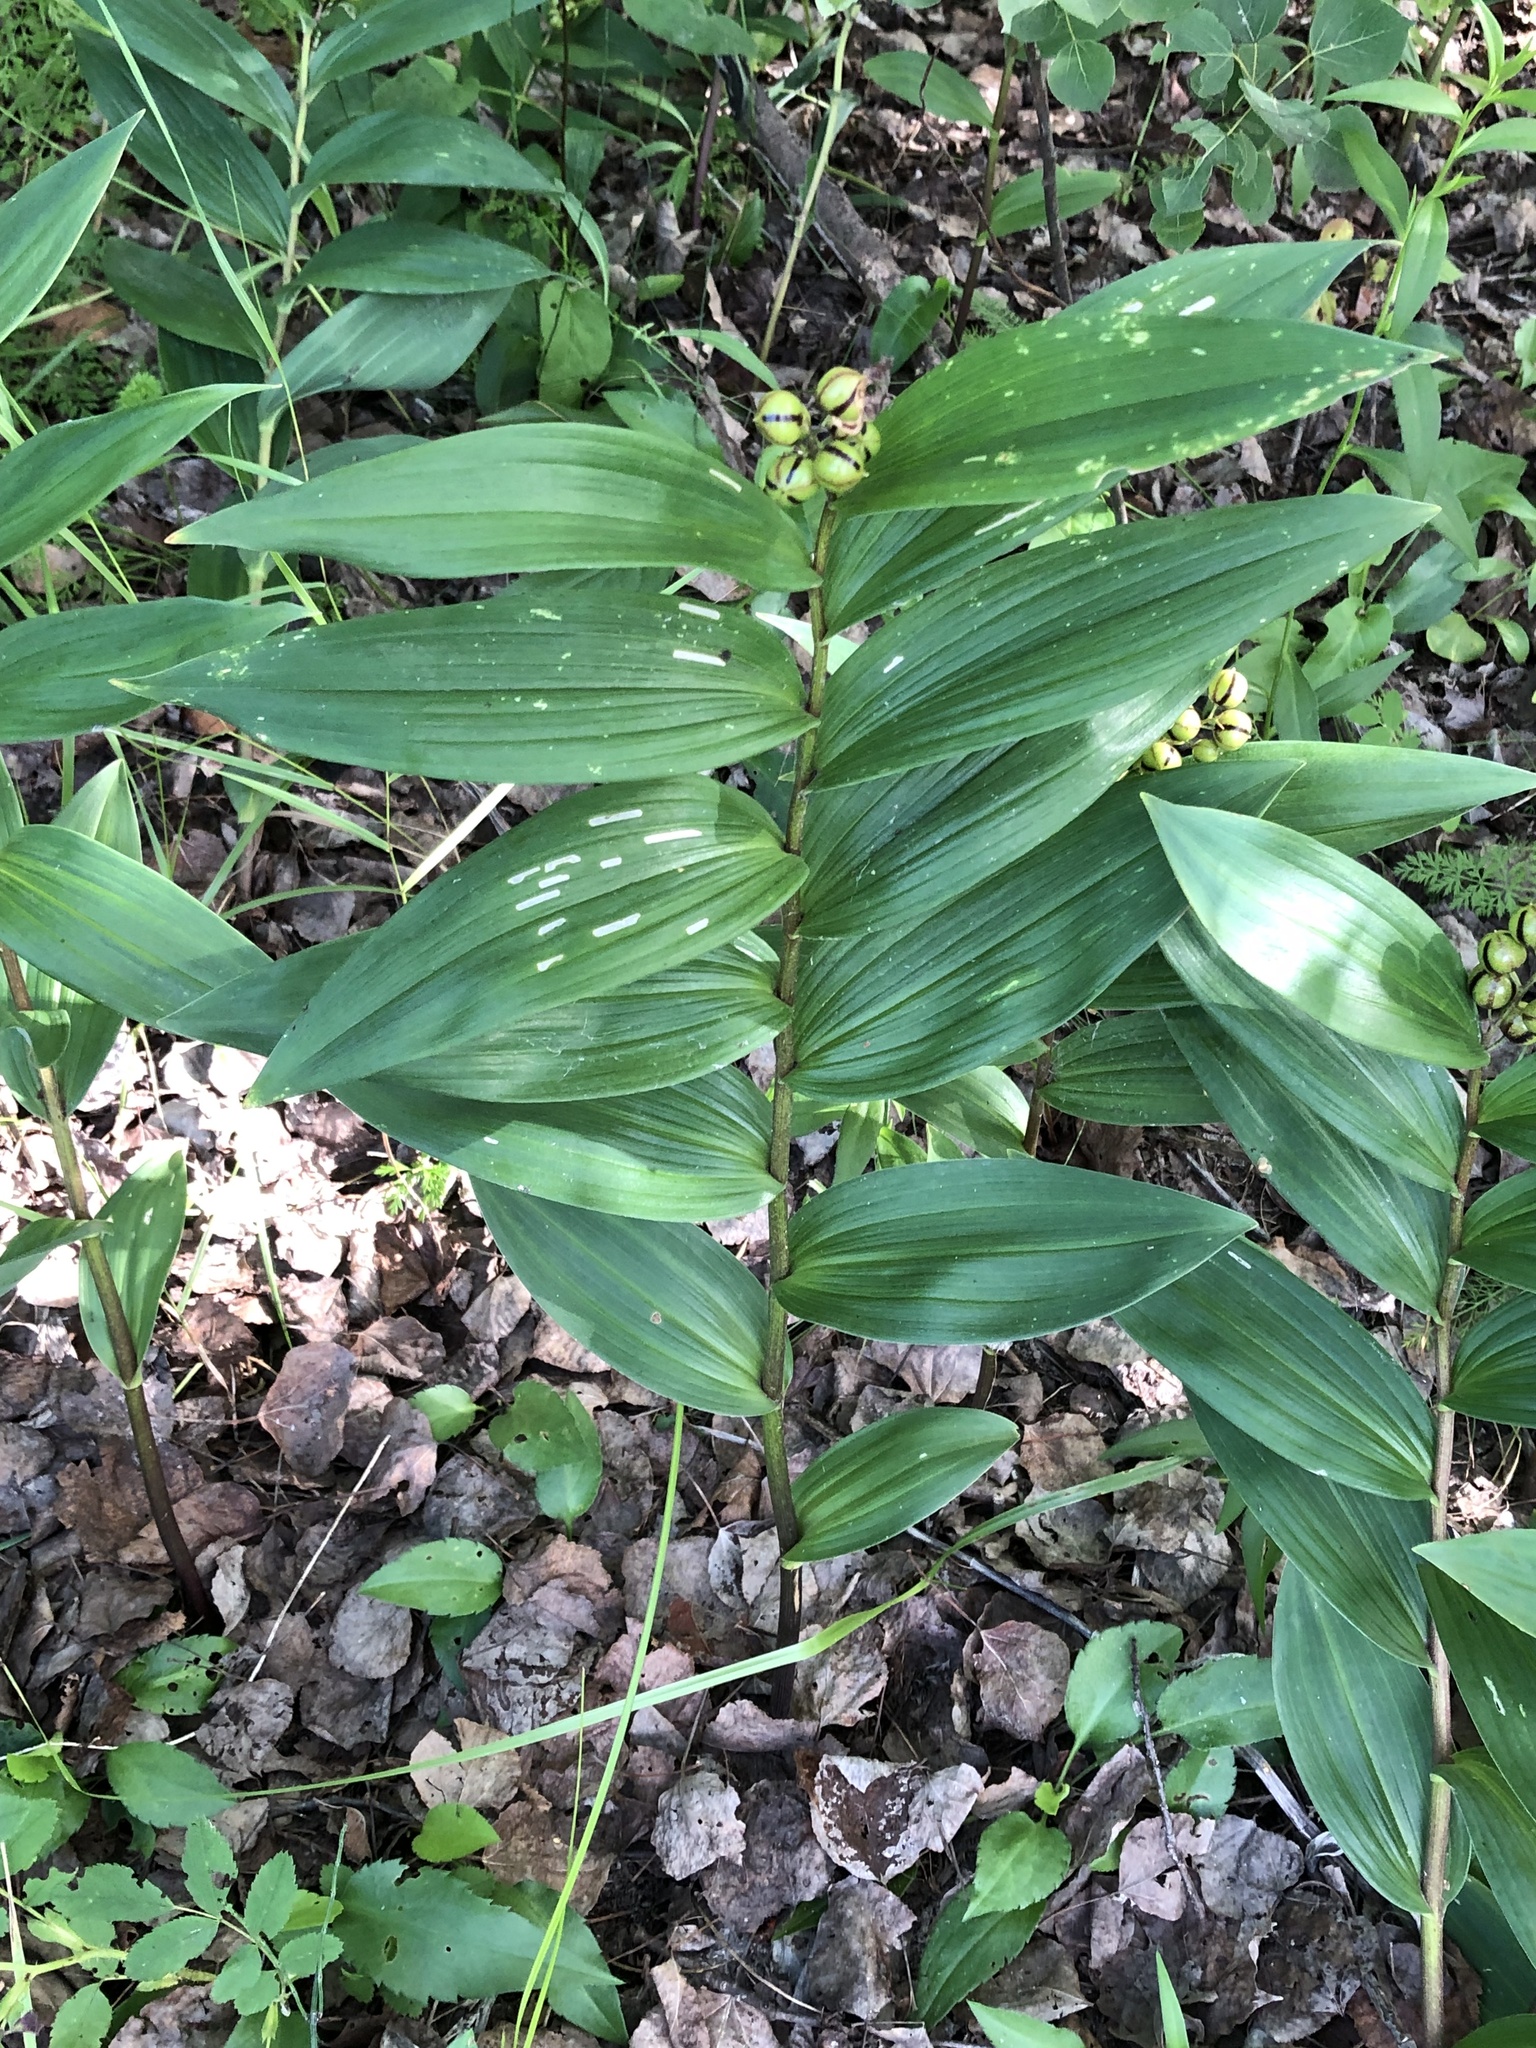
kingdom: Plantae
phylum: Tracheophyta
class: Liliopsida
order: Asparagales
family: Asparagaceae
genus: Maianthemum
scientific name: Maianthemum stellatum
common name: Little false solomon's seal
